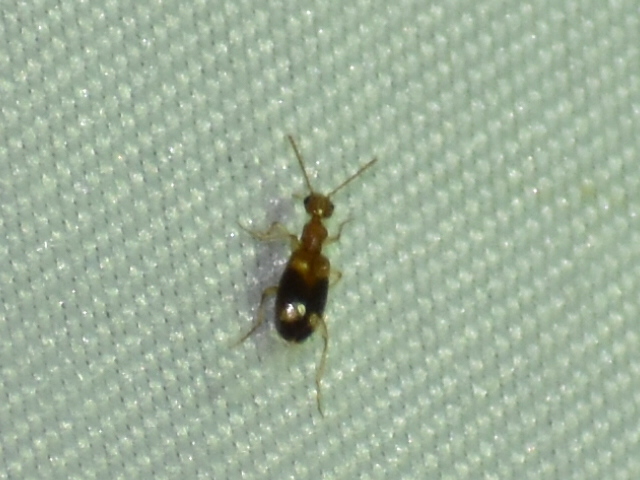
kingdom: Animalia
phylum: Arthropoda
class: Insecta
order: Coleoptera
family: Anthicidae
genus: Stricticollis
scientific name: Stricticollis tobias
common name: Two-dotted ant-like flower beetle
